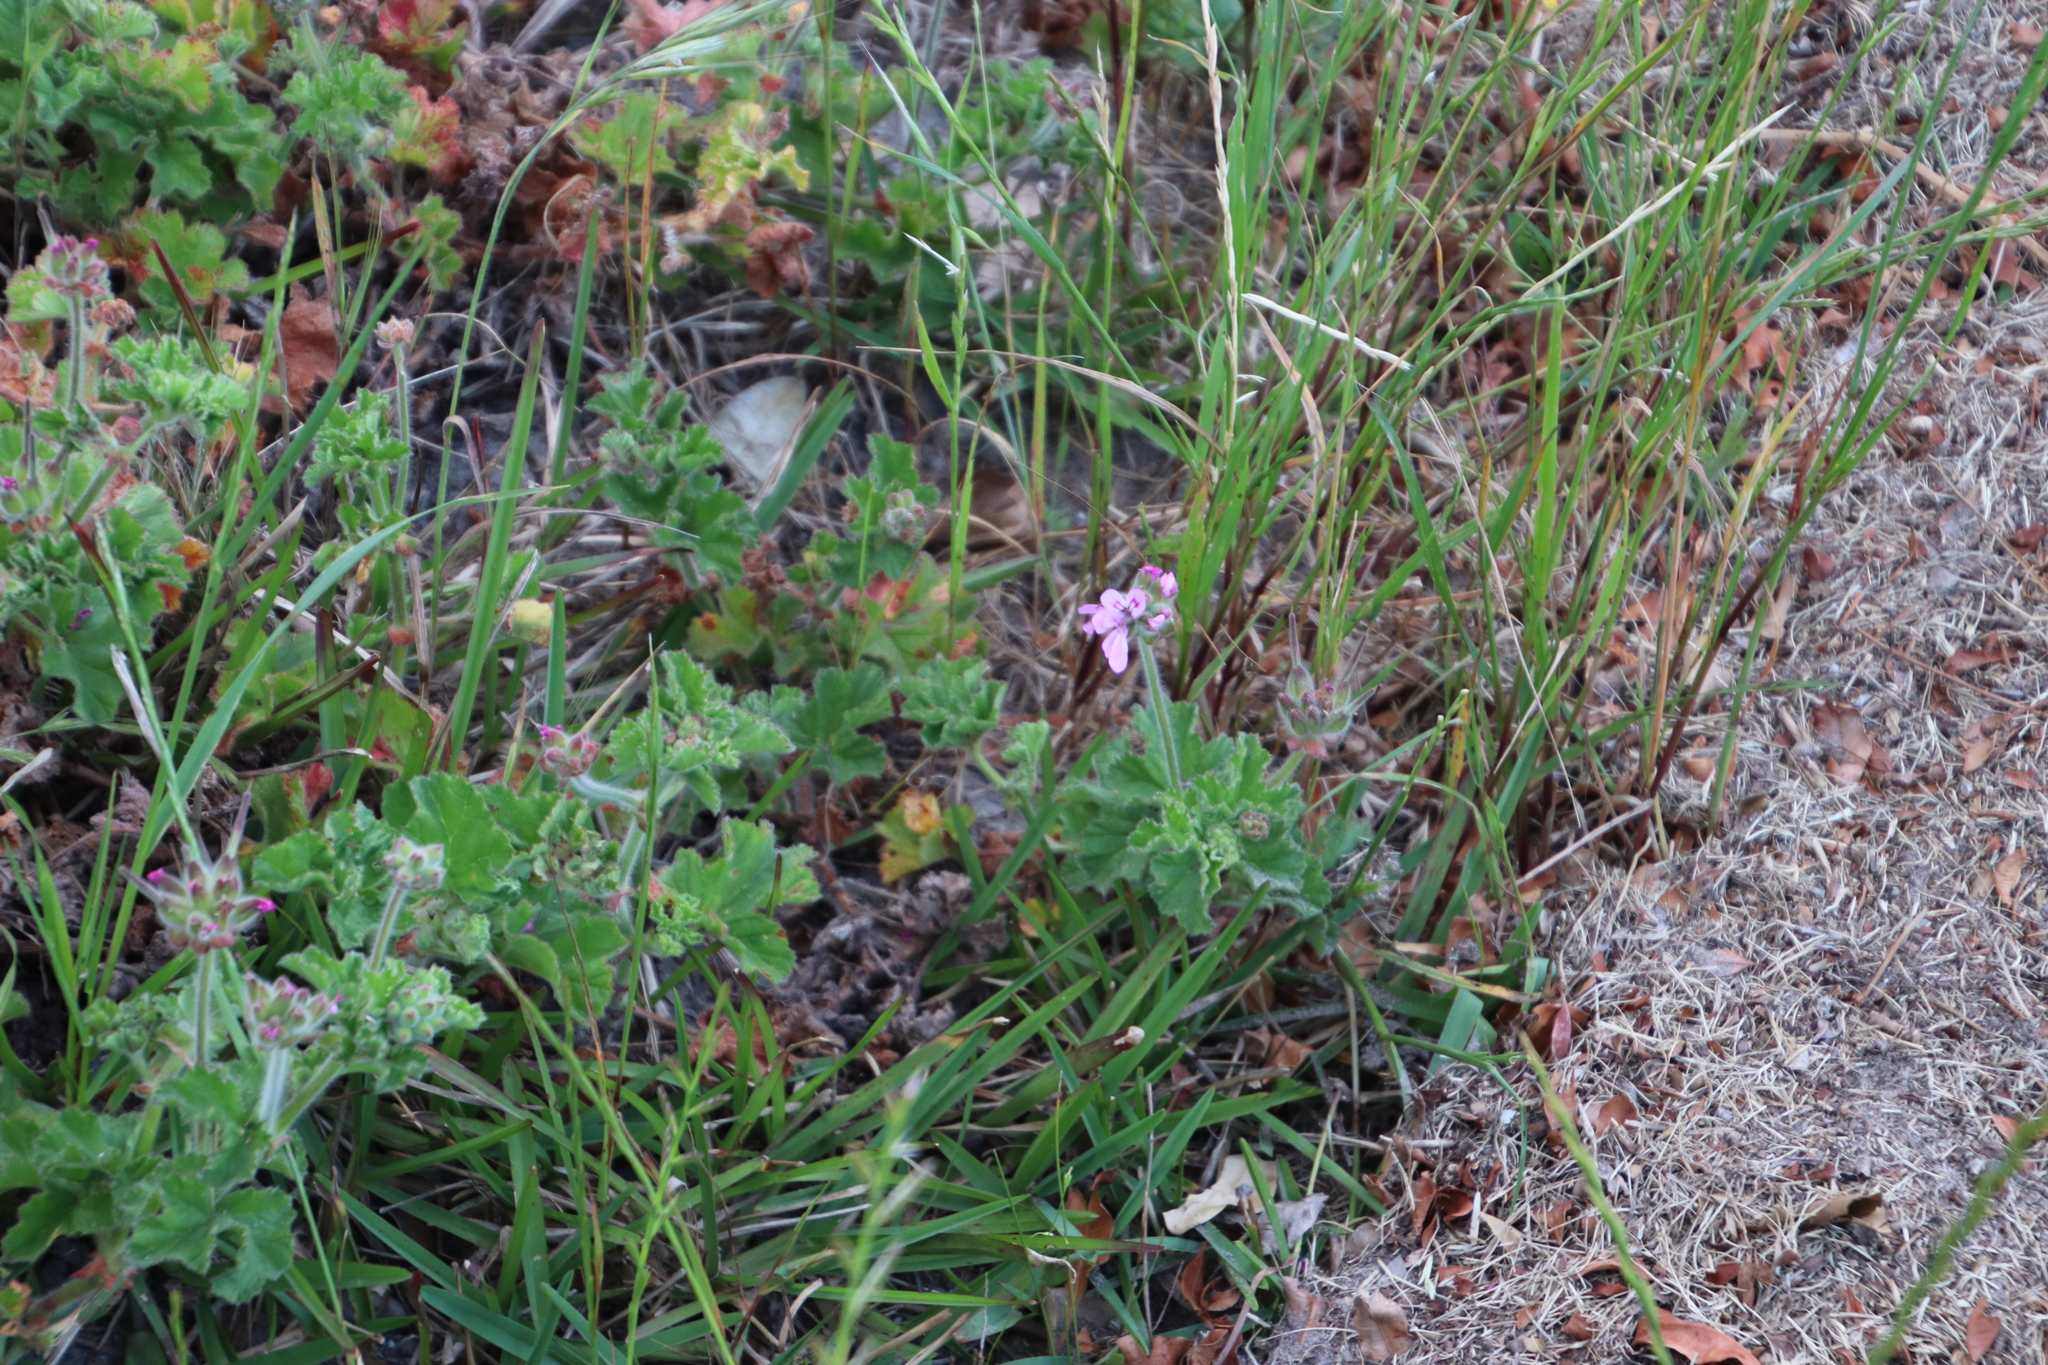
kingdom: Plantae
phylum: Tracheophyta
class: Magnoliopsida
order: Geraniales
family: Geraniaceae
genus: Pelargonium
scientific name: Pelargonium capitatum
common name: Rose scented geranium
